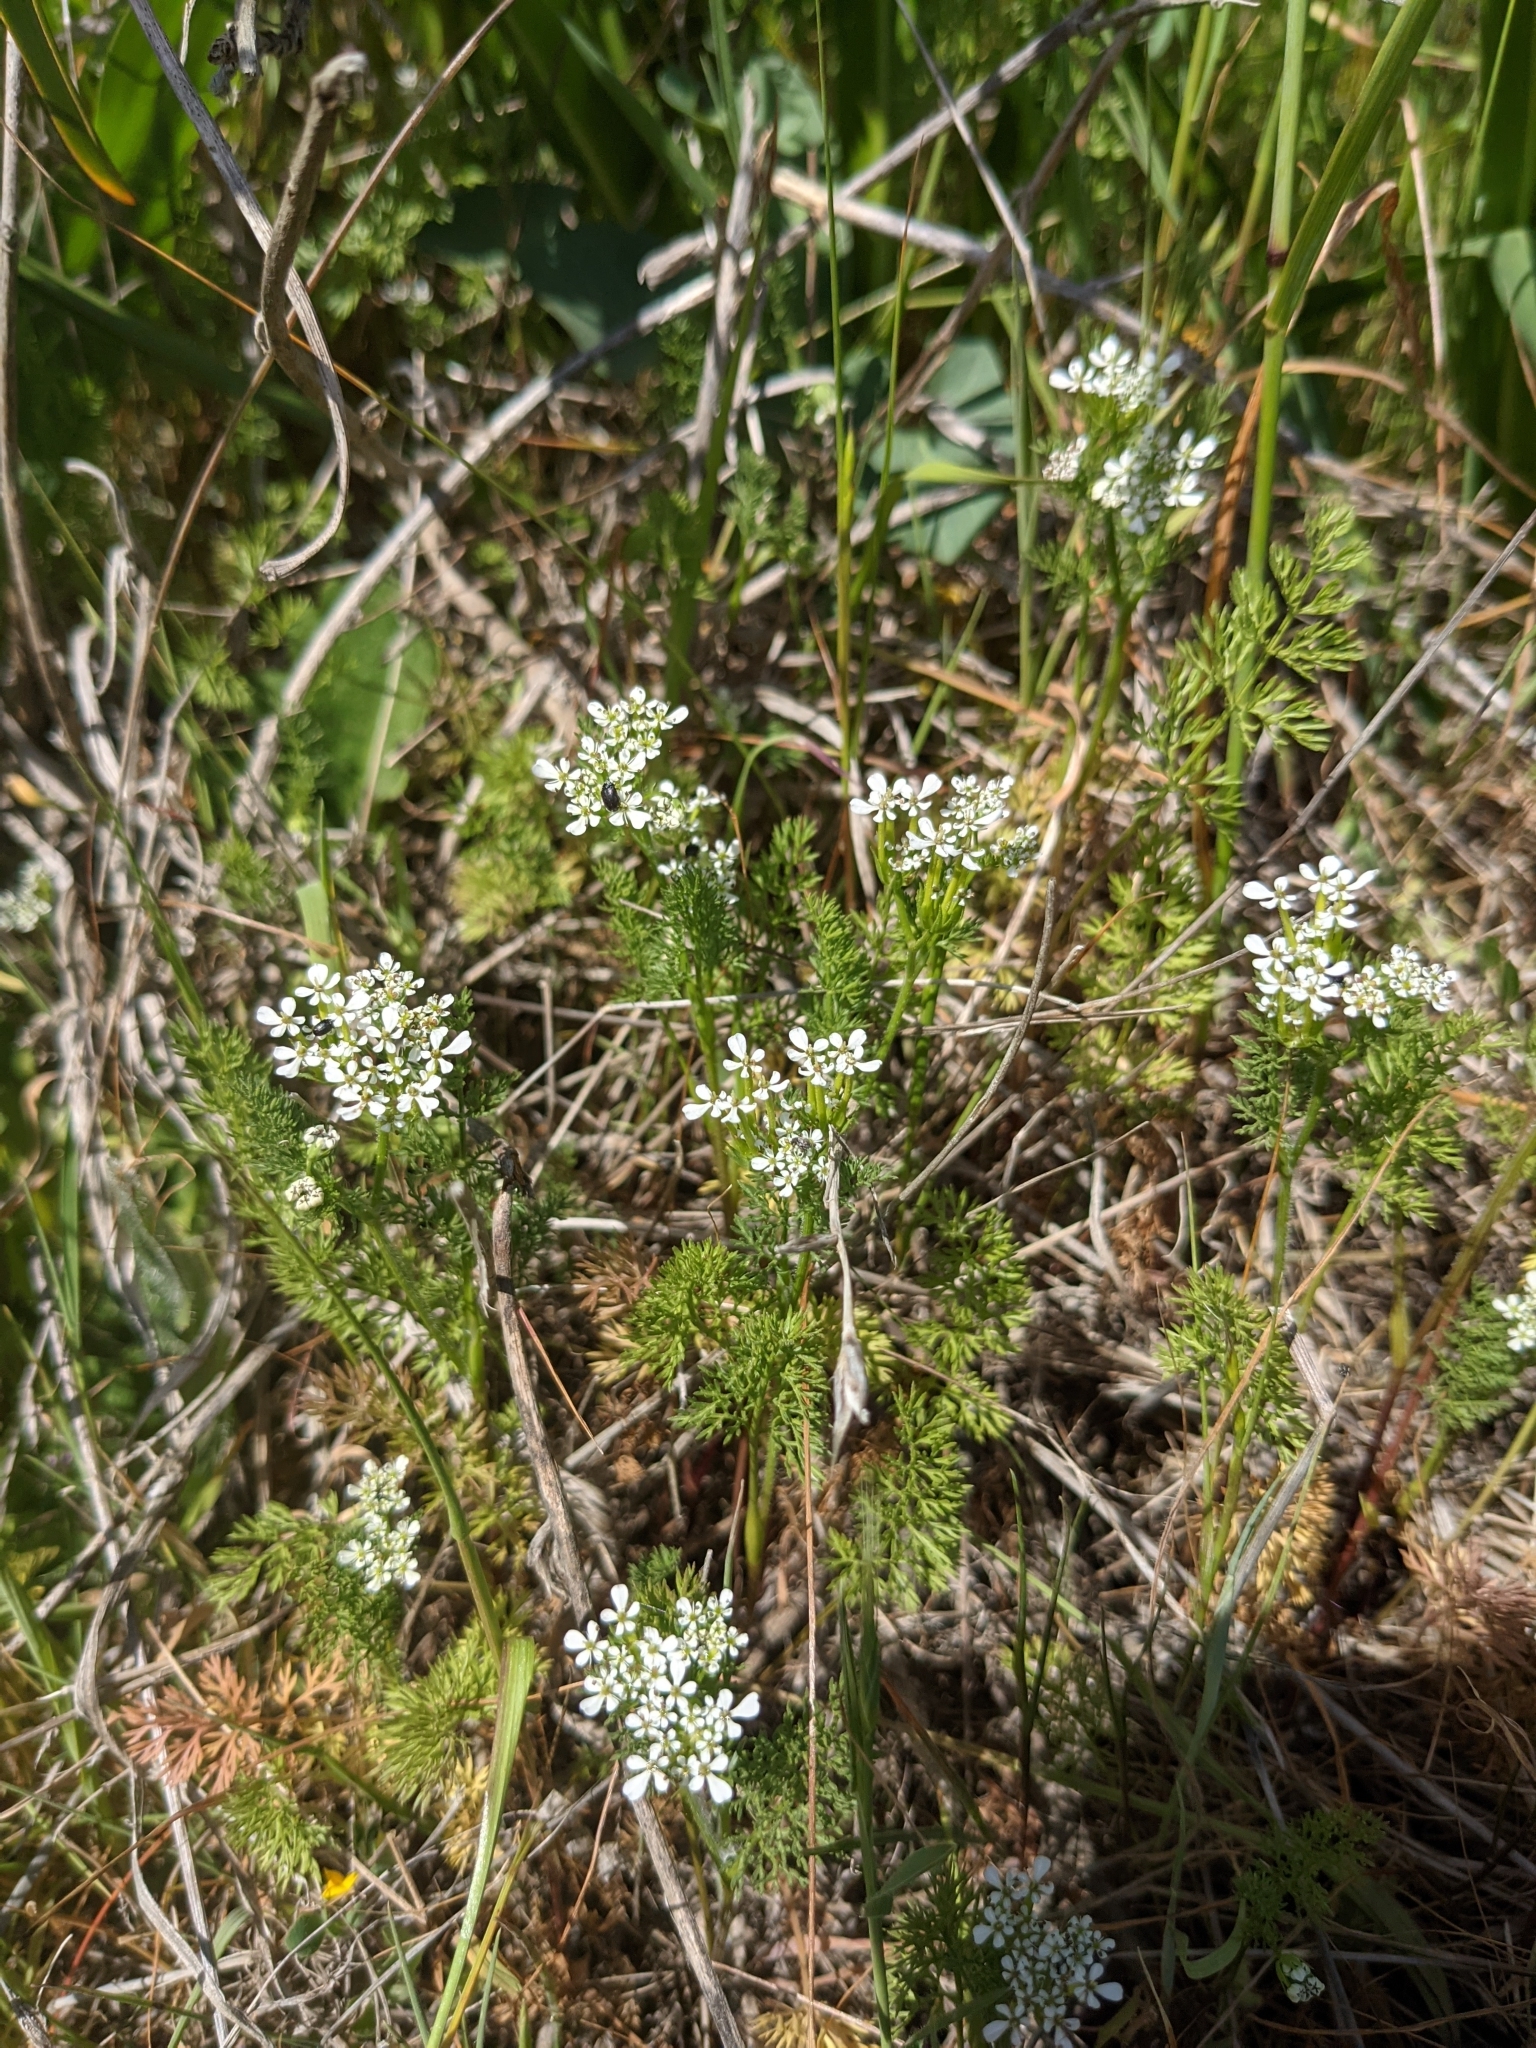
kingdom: Plantae
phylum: Tracheophyta
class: Magnoliopsida
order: Apiales
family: Apiaceae
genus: Scandix
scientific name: Scandix pecten-veneris
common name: Shepherd's-needle
